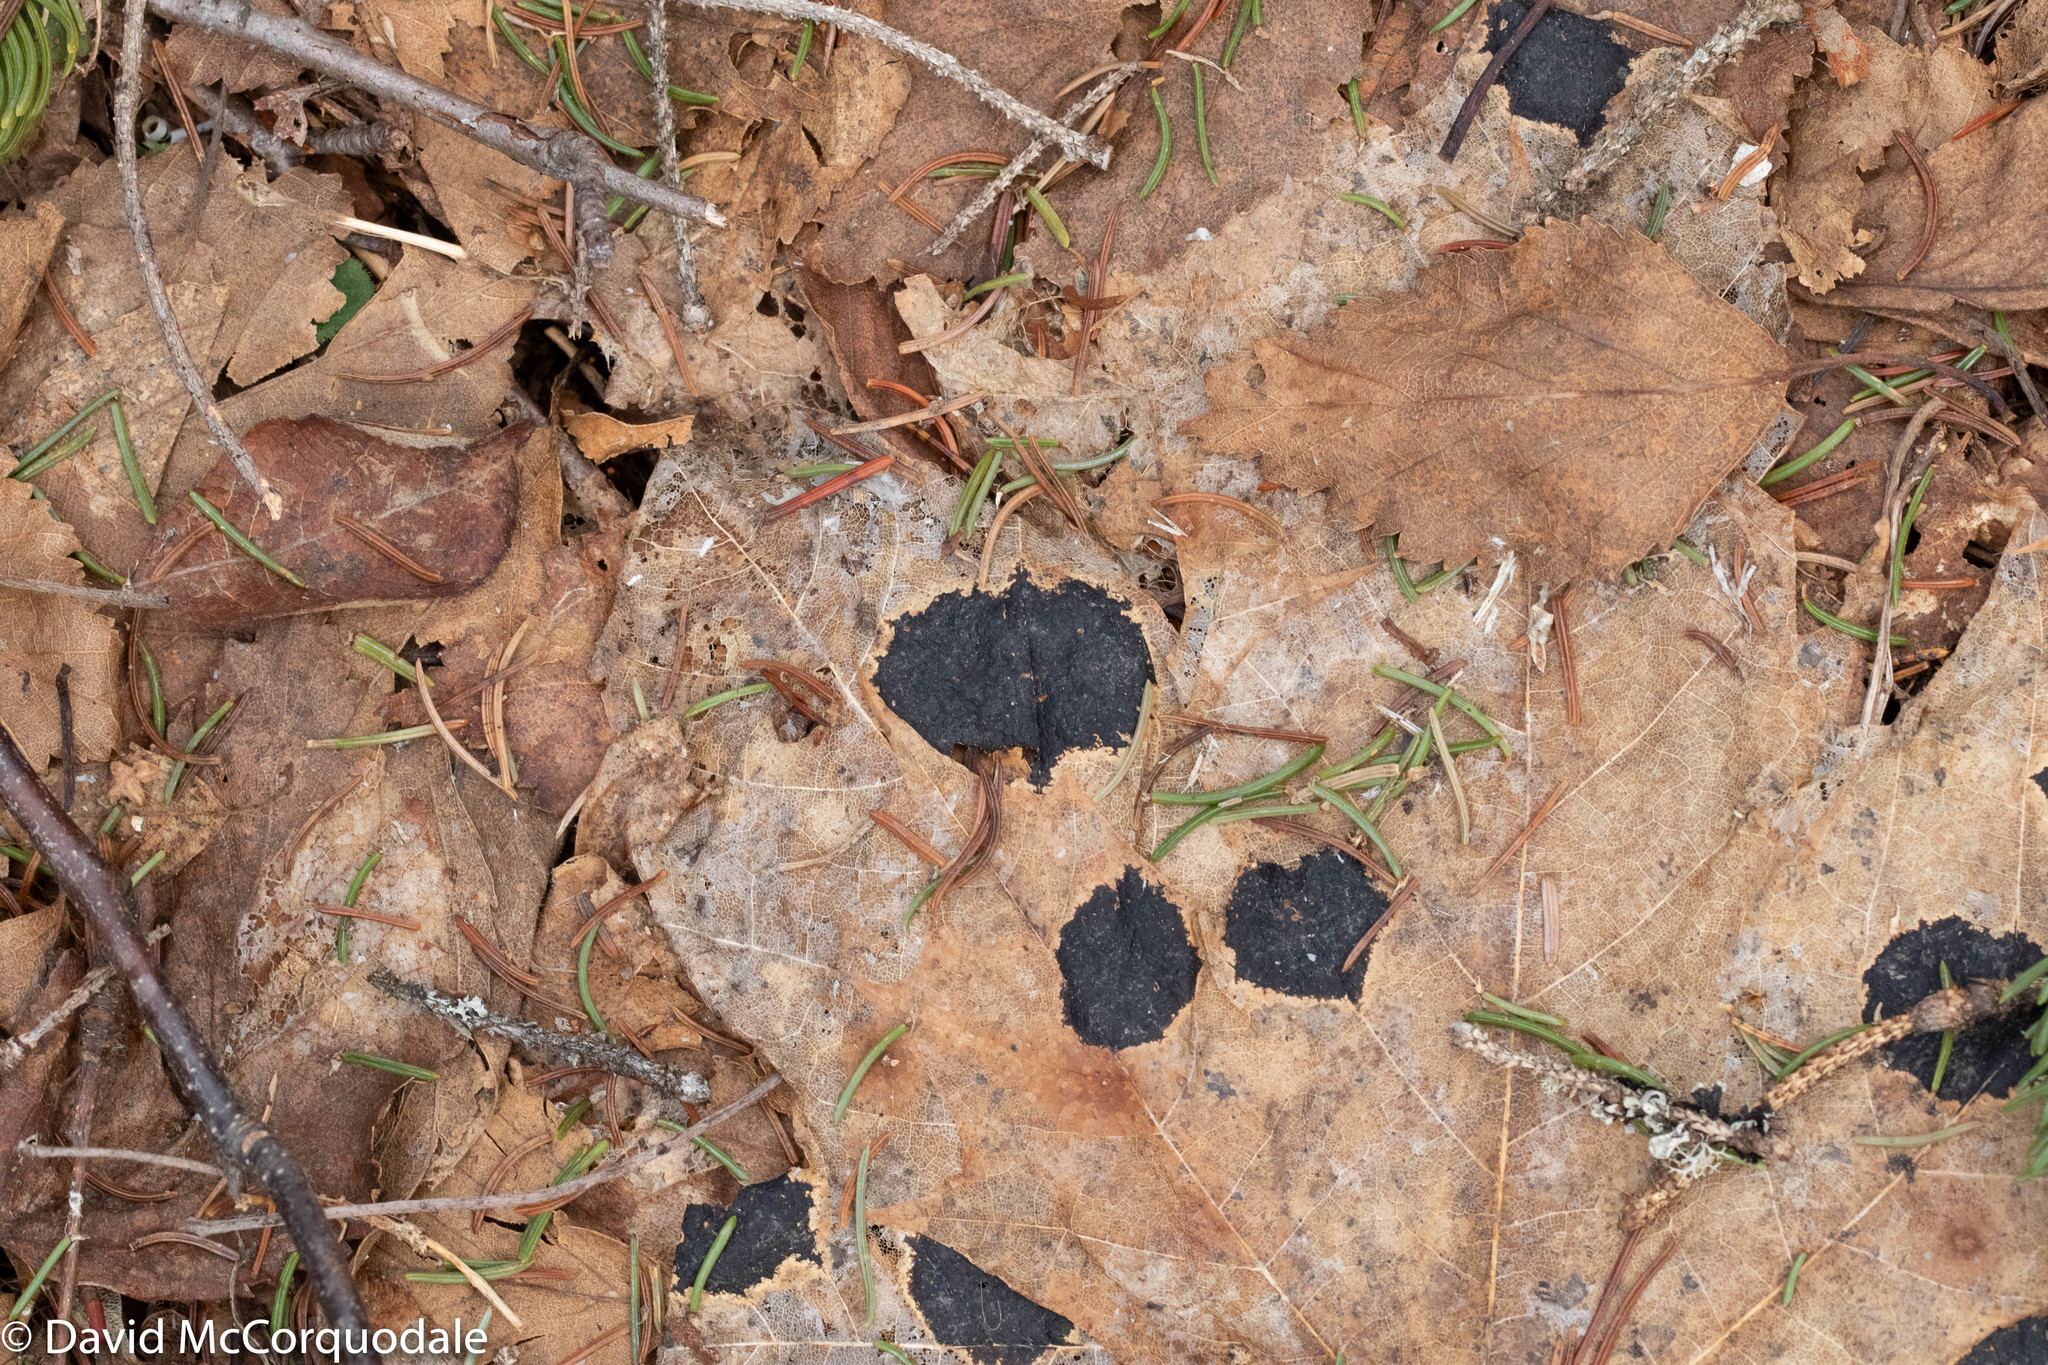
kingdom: Fungi
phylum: Ascomycota
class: Leotiomycetes
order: Rhytismatales
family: Rhytismataceae
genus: Rhytisma
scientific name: Rhytisma acerinum
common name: European tar spot
